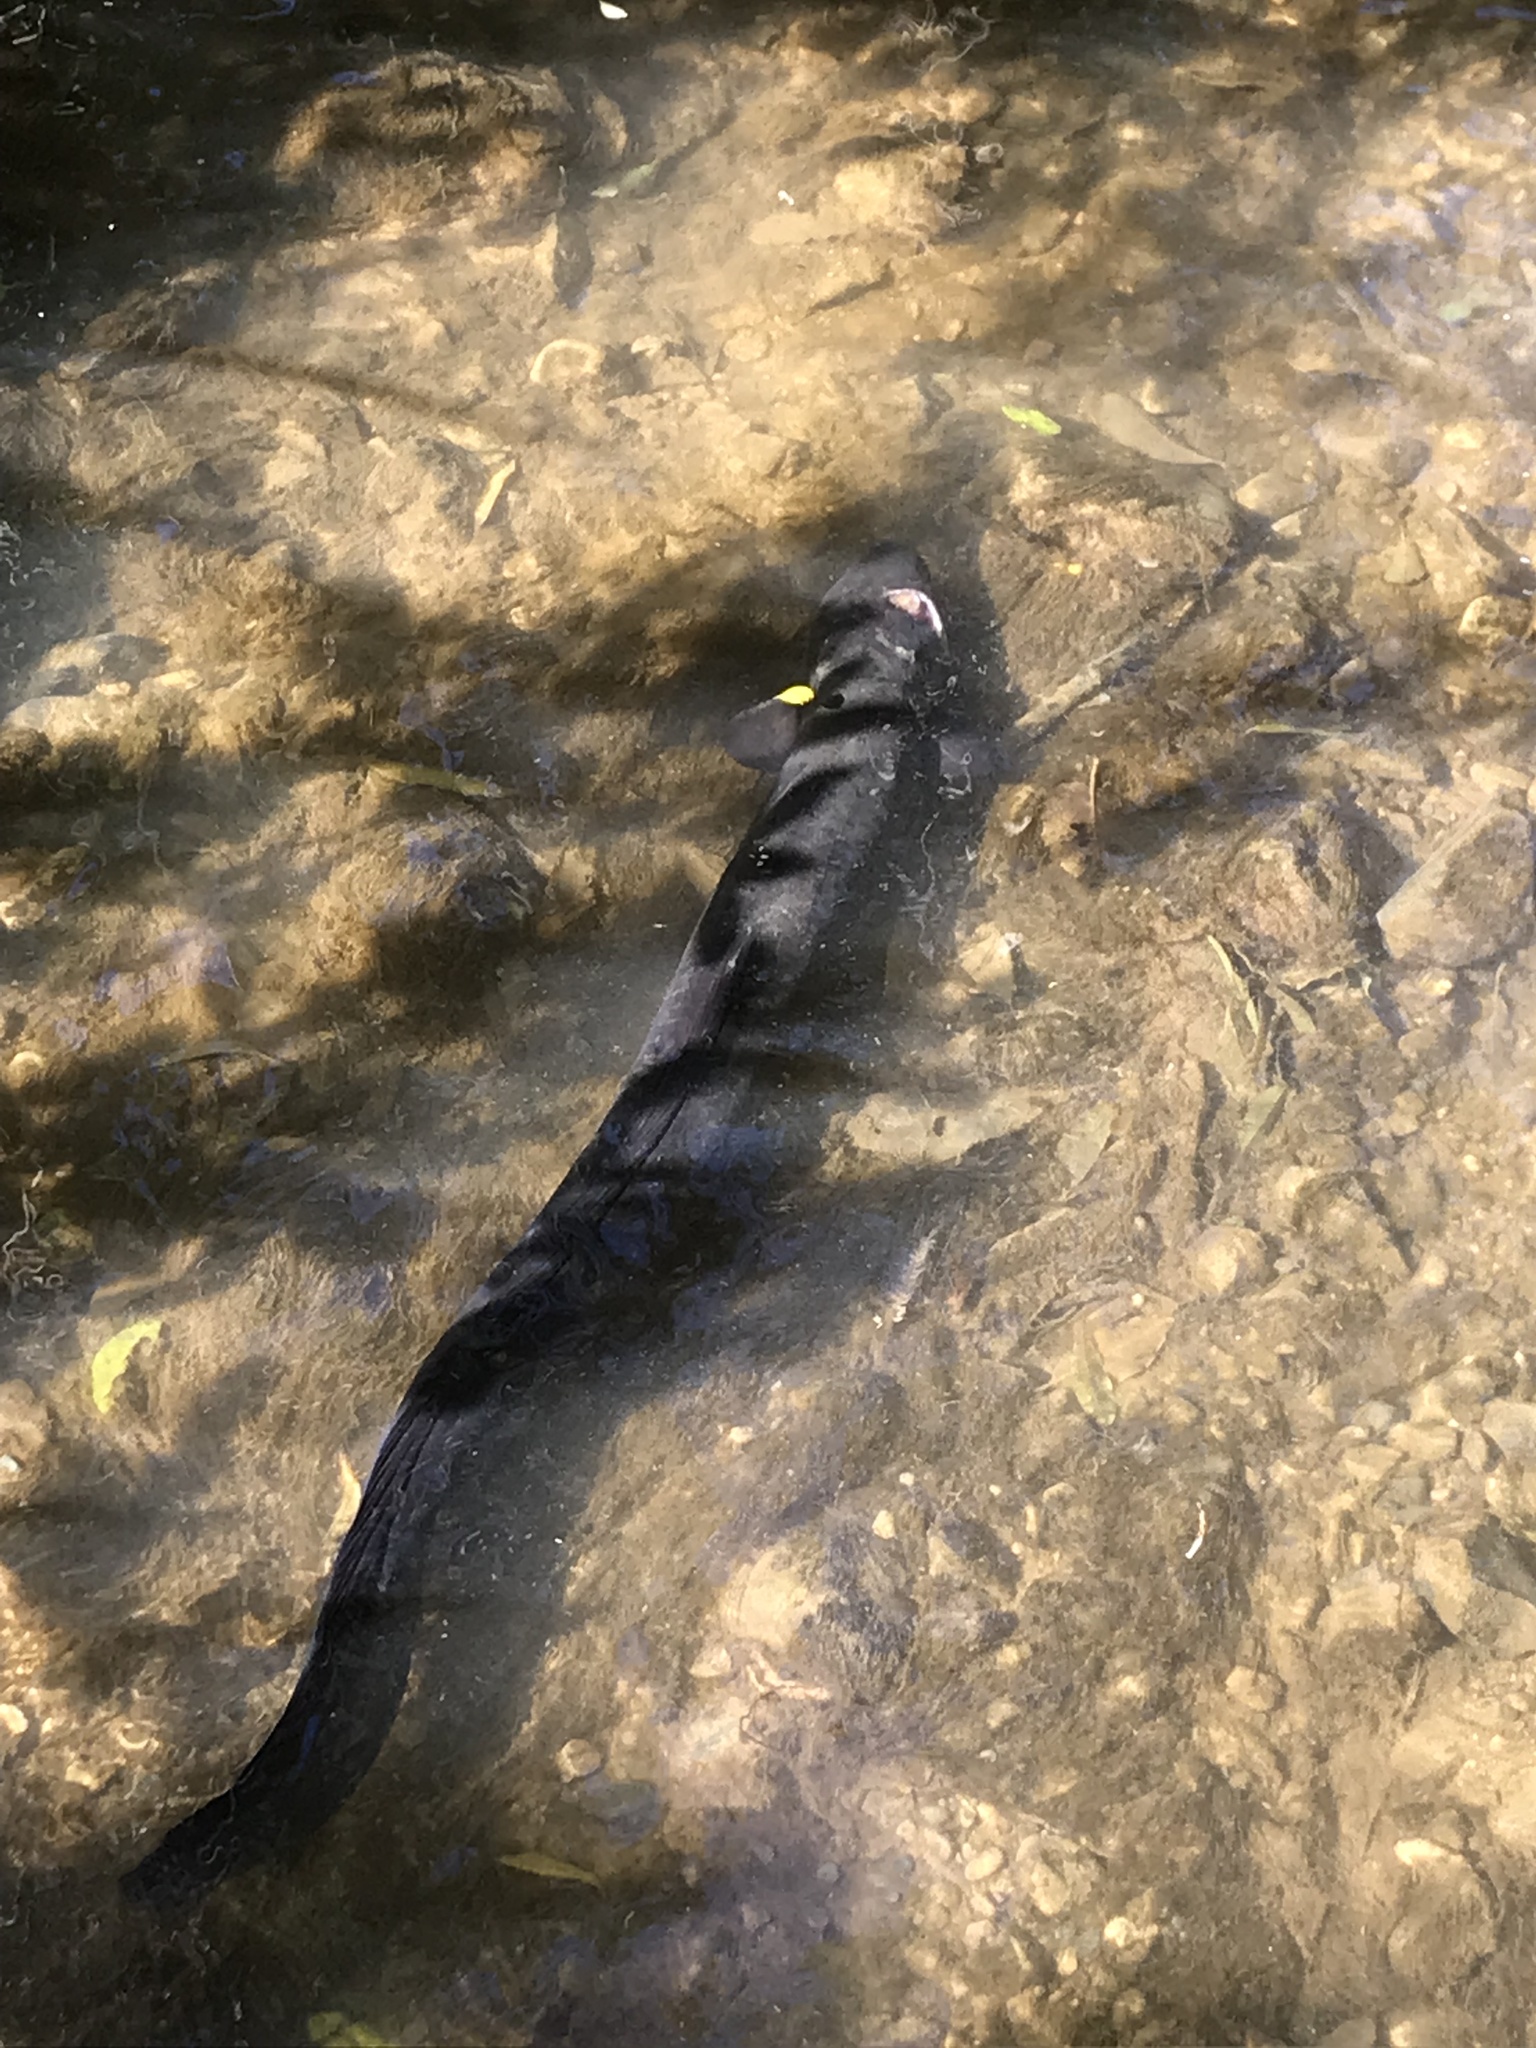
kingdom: Animalia
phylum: Chordata
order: Anguilliformes
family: Anguillidae
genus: Anguilla
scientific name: Anguilla dieffenbachii
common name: New zealand longfin eel
